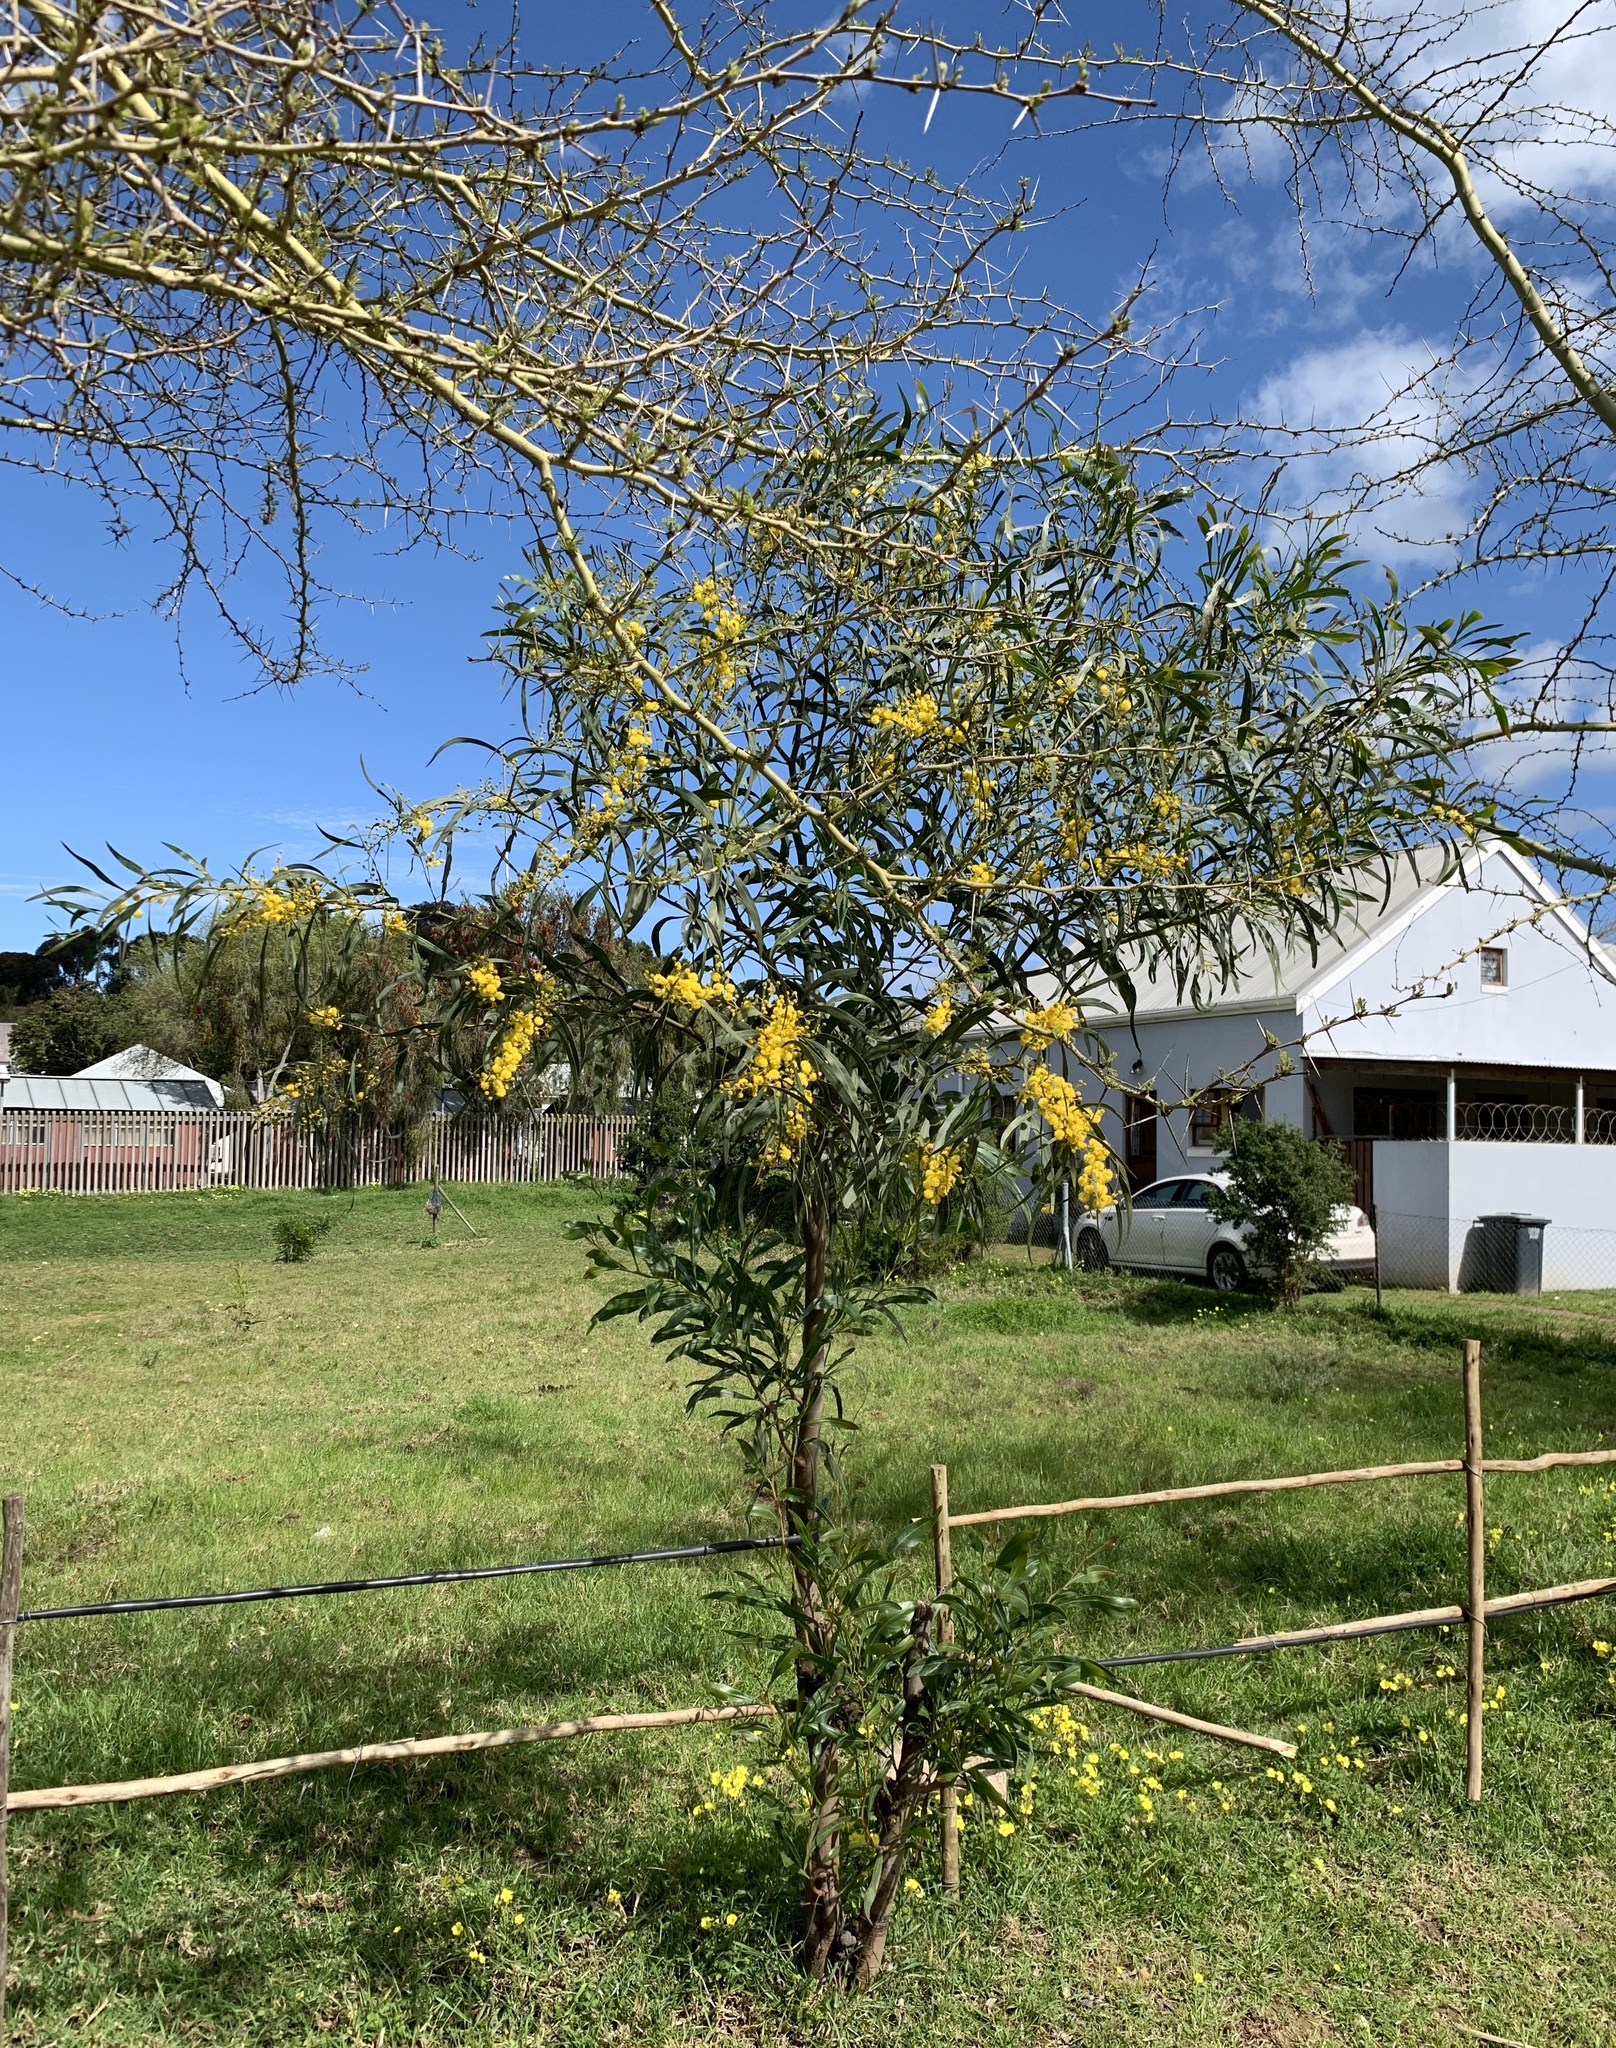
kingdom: Plantae
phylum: Tracheophyta
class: Magnoliopsida
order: Fabales
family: Fabaceae
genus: Acacia
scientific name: Acacia saligna
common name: Orange wattle
